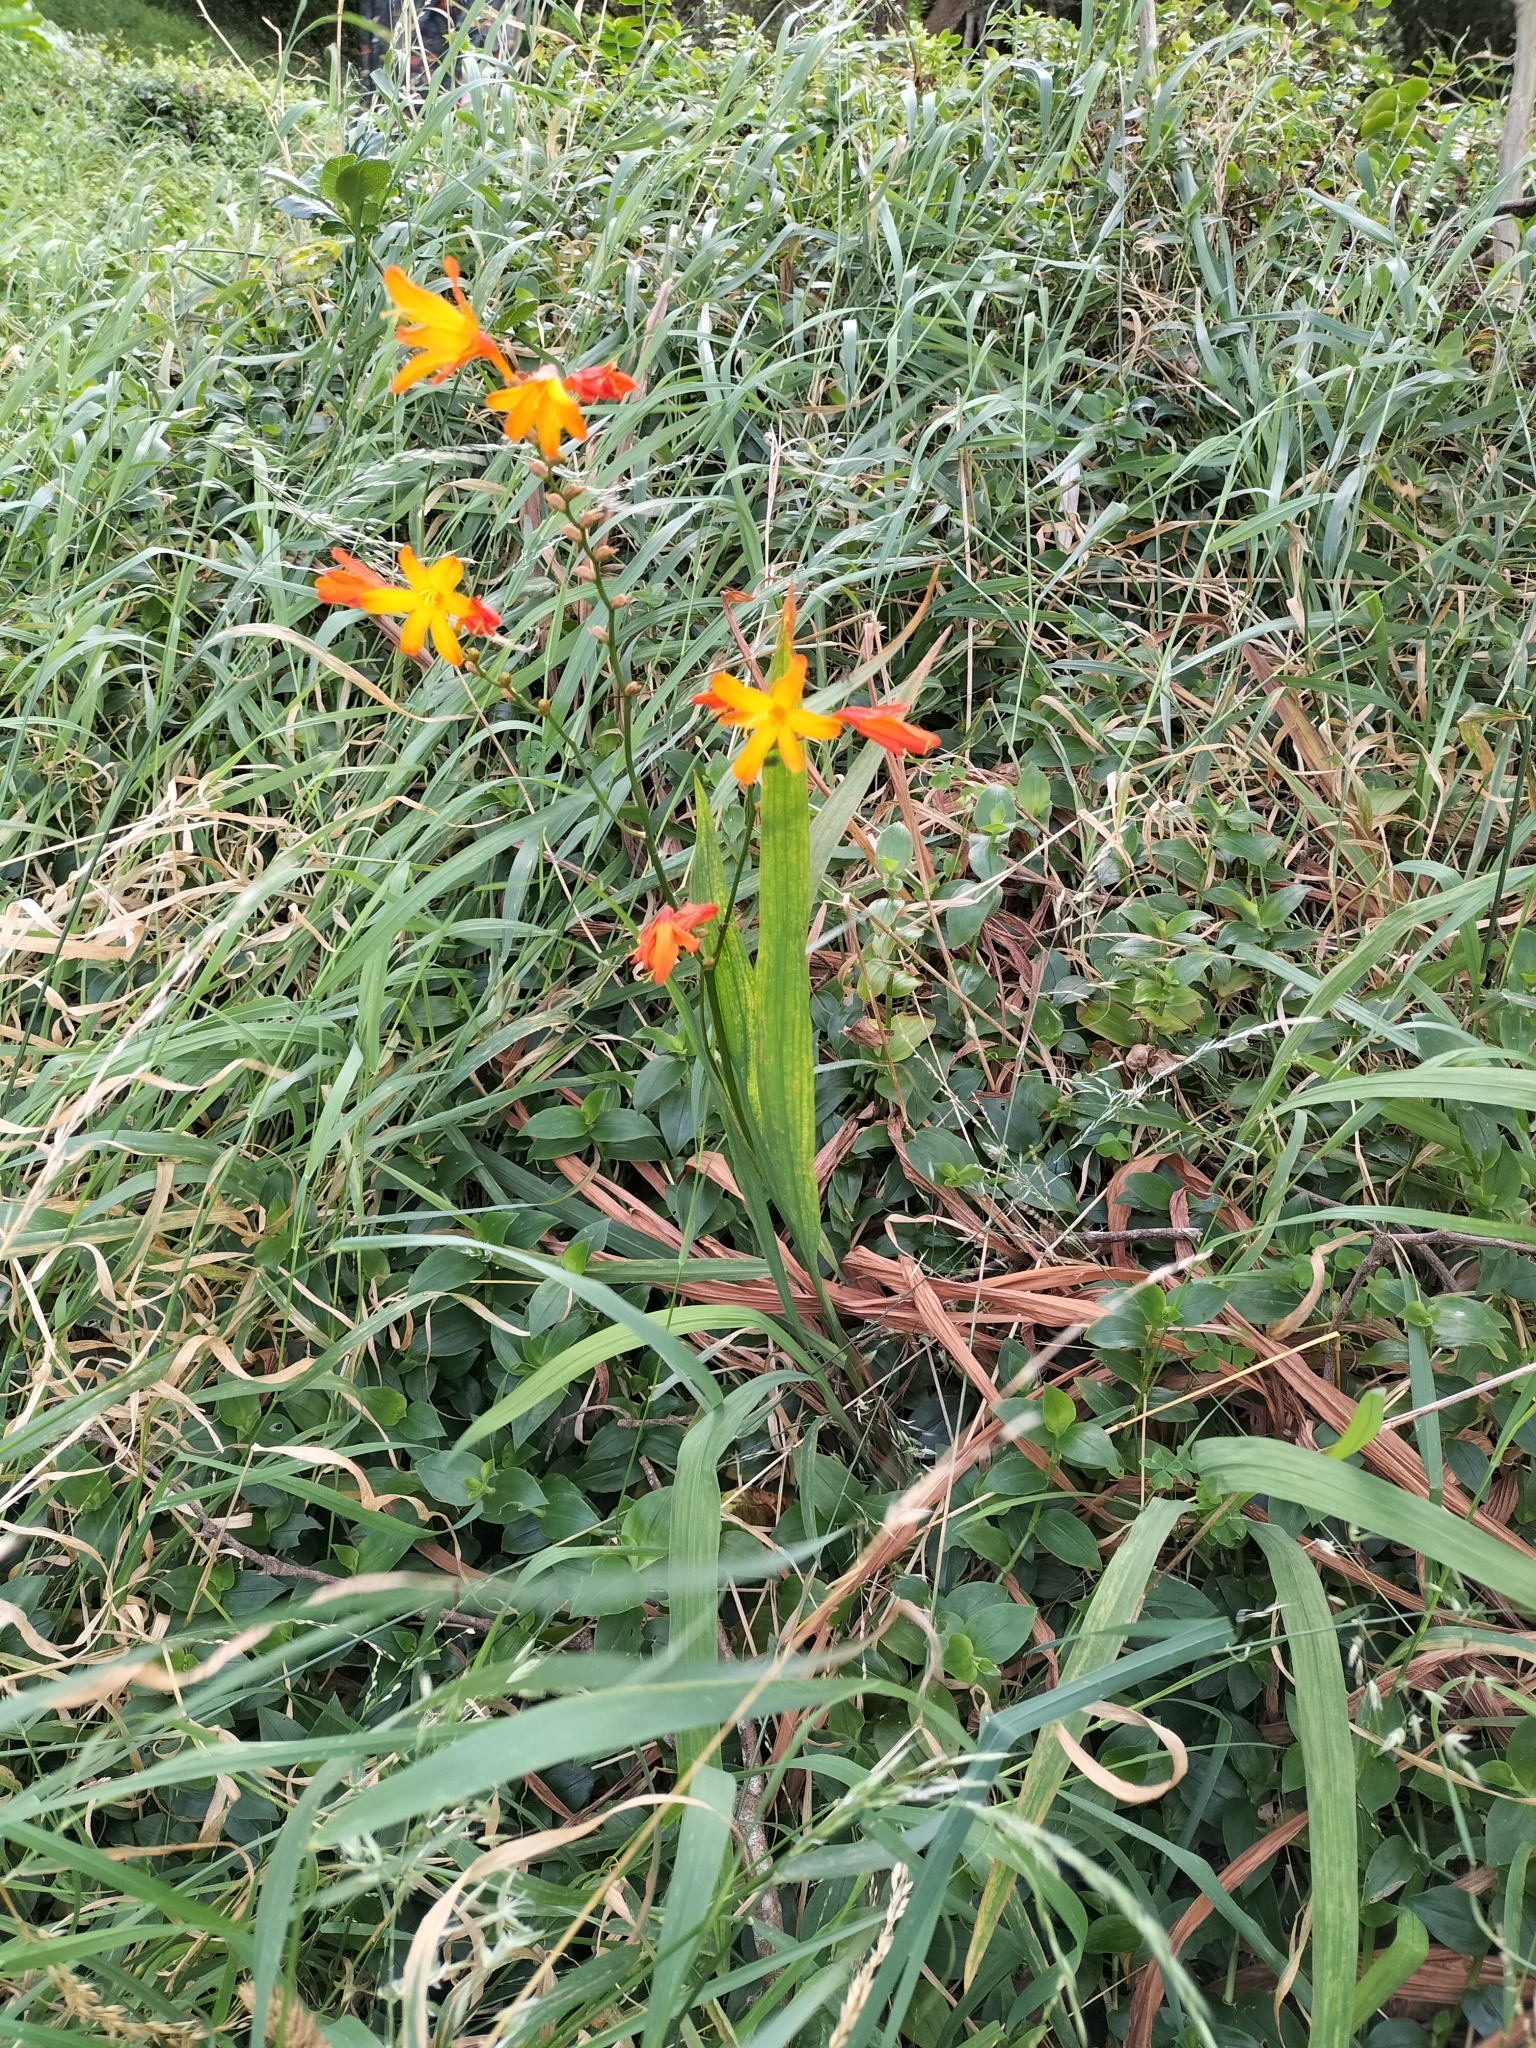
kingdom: Plantae
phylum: Tracheophyta
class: Liliopsida
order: Asparagales
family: Iridaceae
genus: Crocosmia
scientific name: Crocosmia crocosmiiflora
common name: Montbretia
